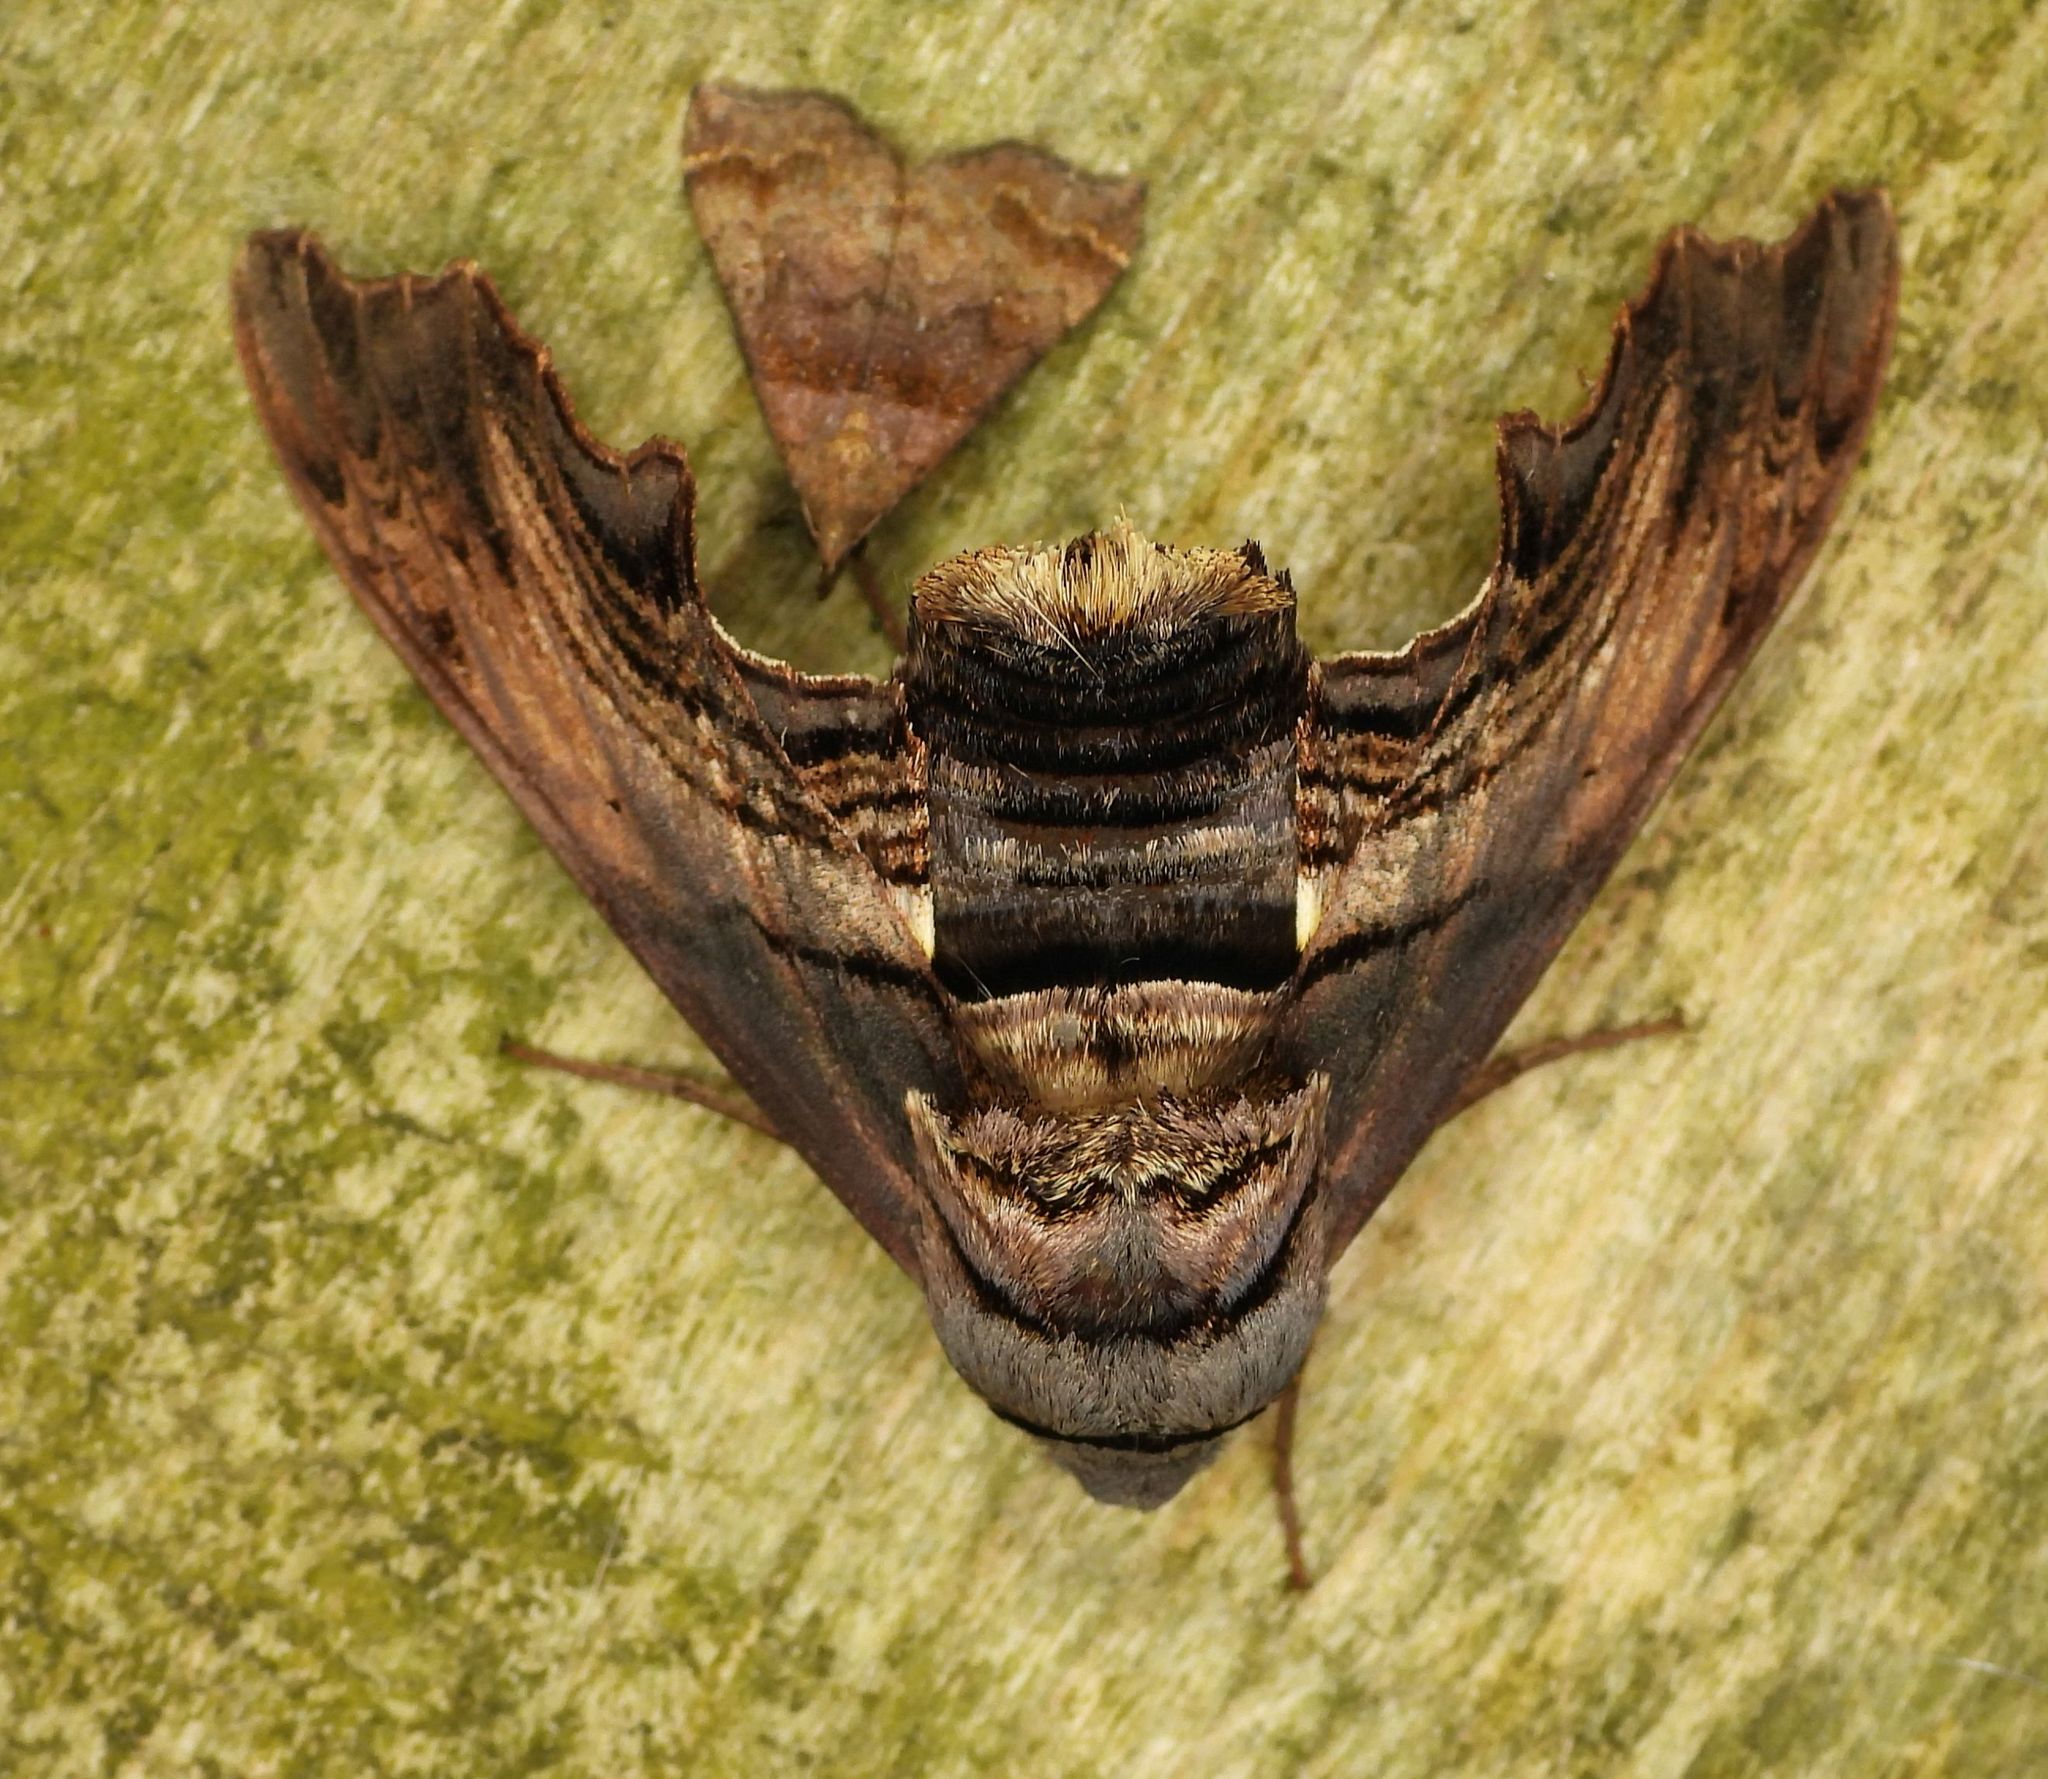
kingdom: Animalia
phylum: Arthropoda
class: Insecta
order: Lepidoptera
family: Sphingidae
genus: Sphecodina
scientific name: Sphecodina abbottii
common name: Abbott's sphinx
